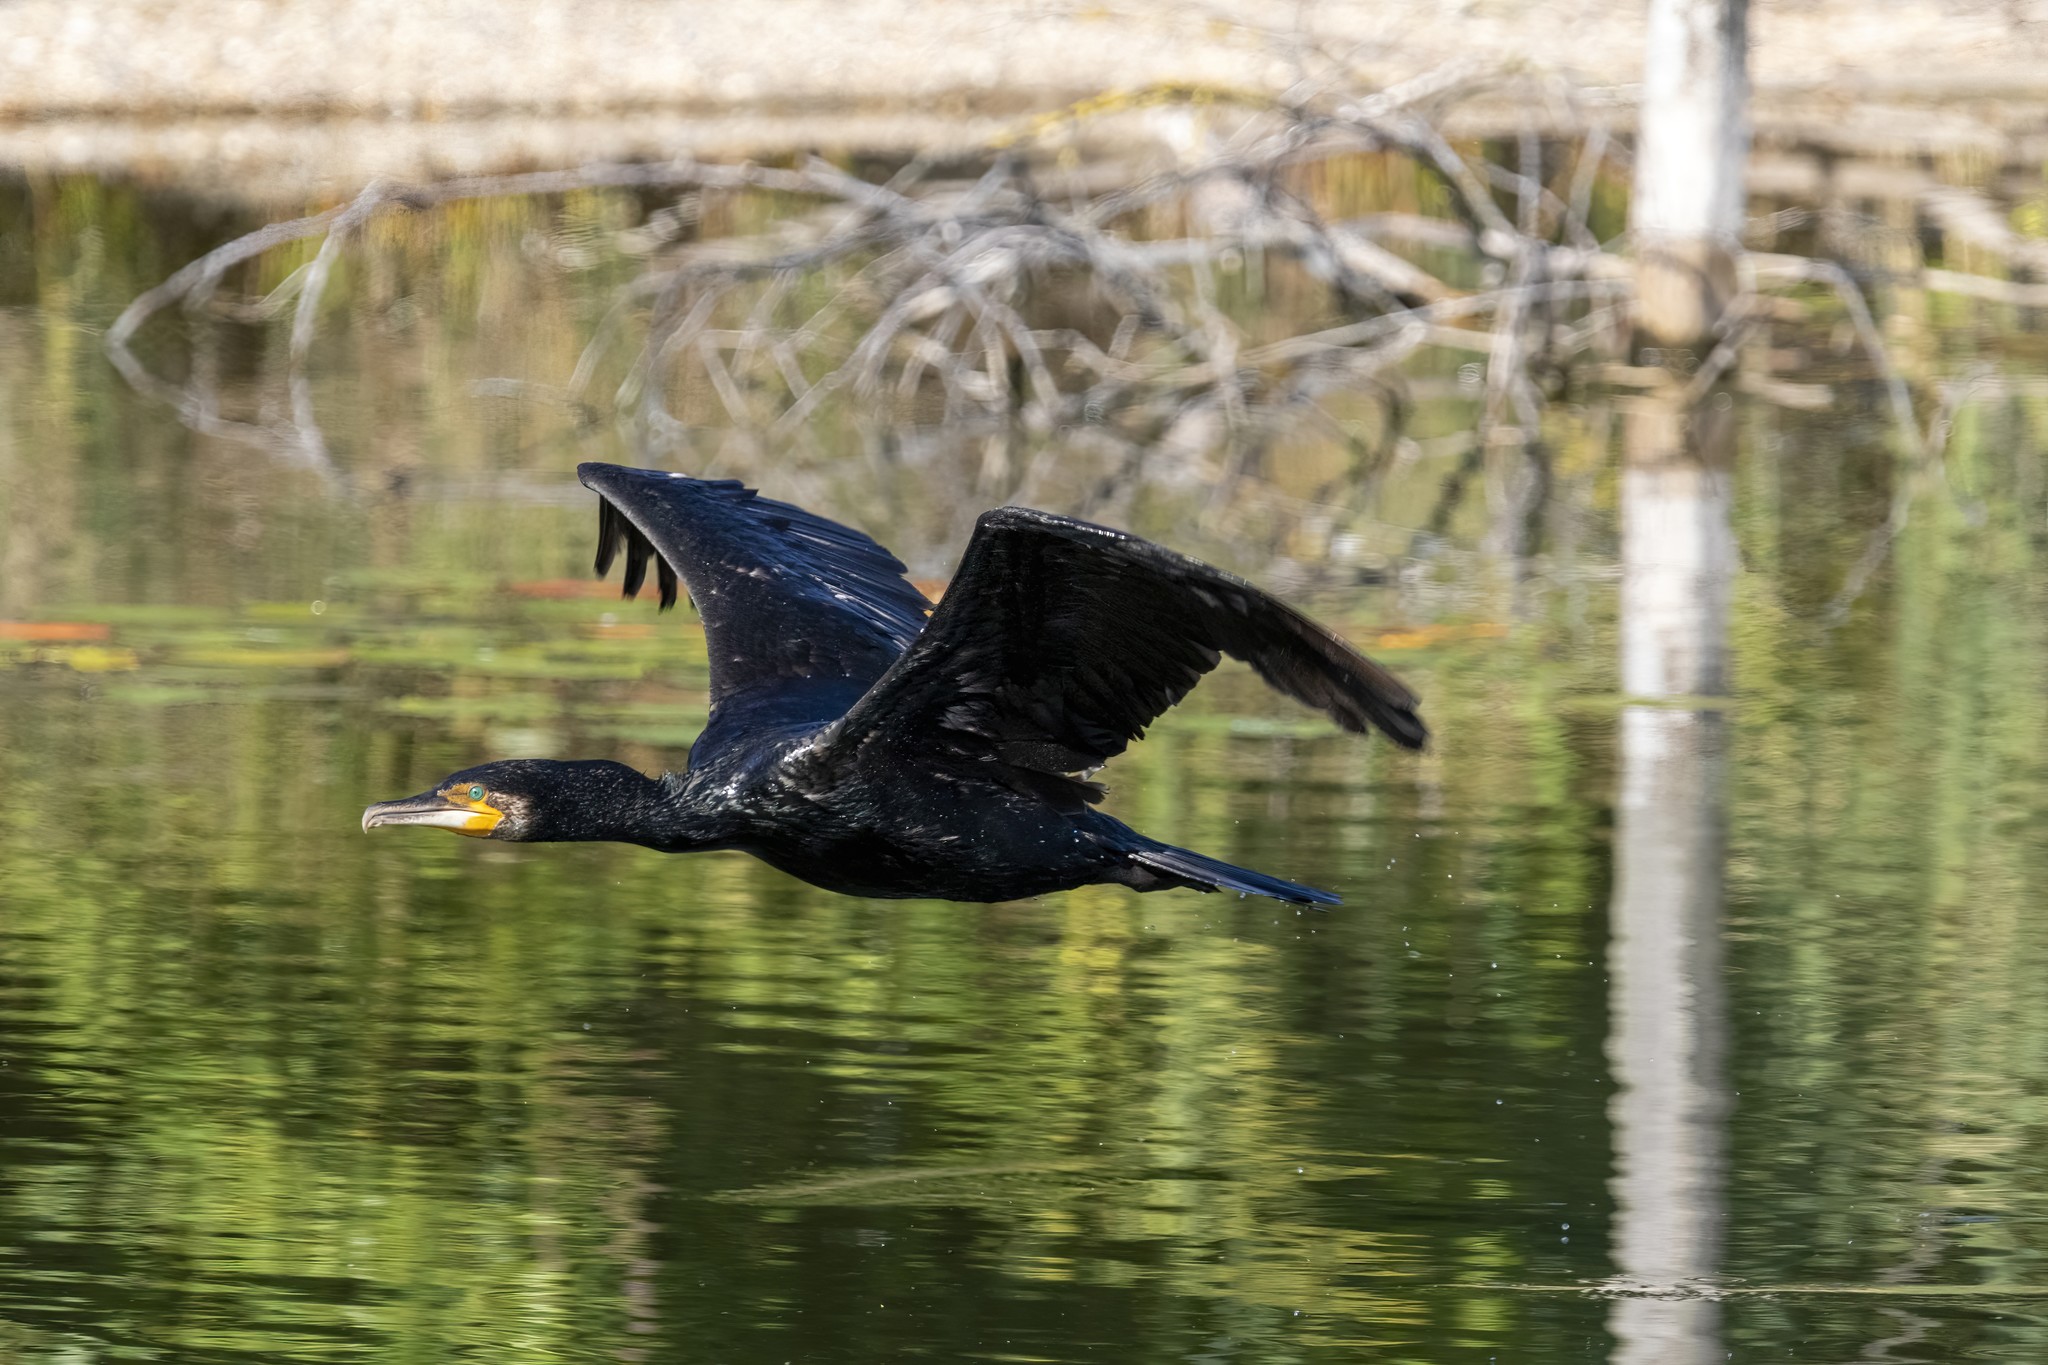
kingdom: Animalia
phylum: Chordata
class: Aves
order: Suliformes
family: Phalacrocoracidae
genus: Phalacrocorax
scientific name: Phalacrocorax carbo
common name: Great cormorant
